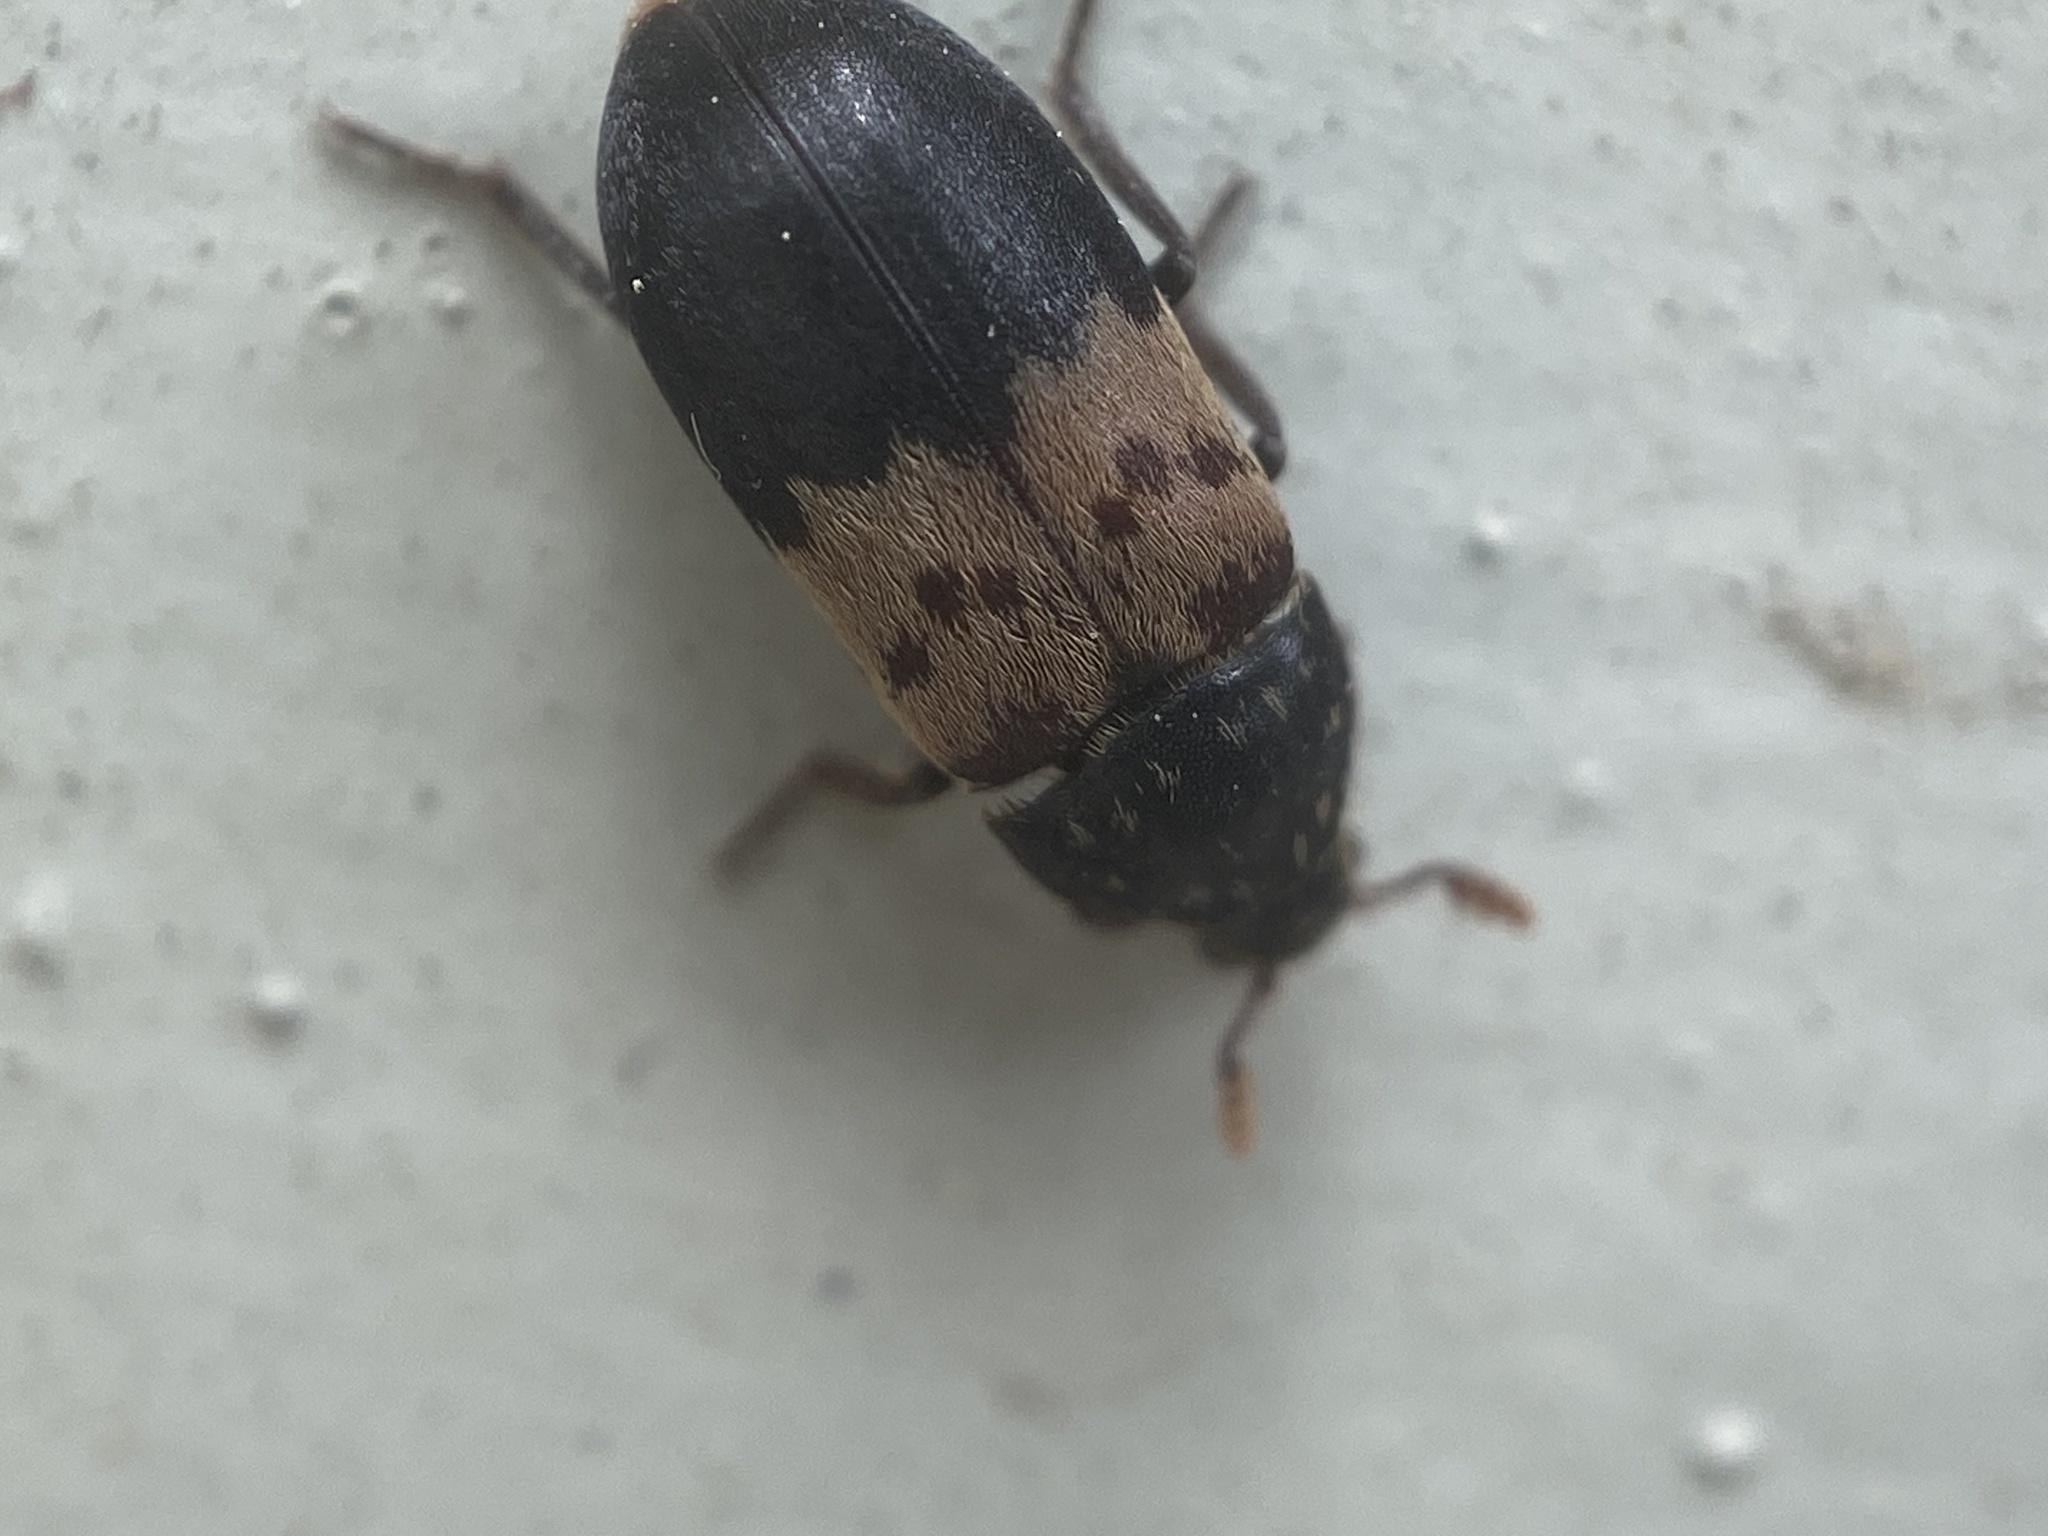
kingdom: Animalia
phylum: Arthropoda
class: Insecta
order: Coleoptera
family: Dermestidae
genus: Dermestes
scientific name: Dermestes lardarius
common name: Larder beetle
